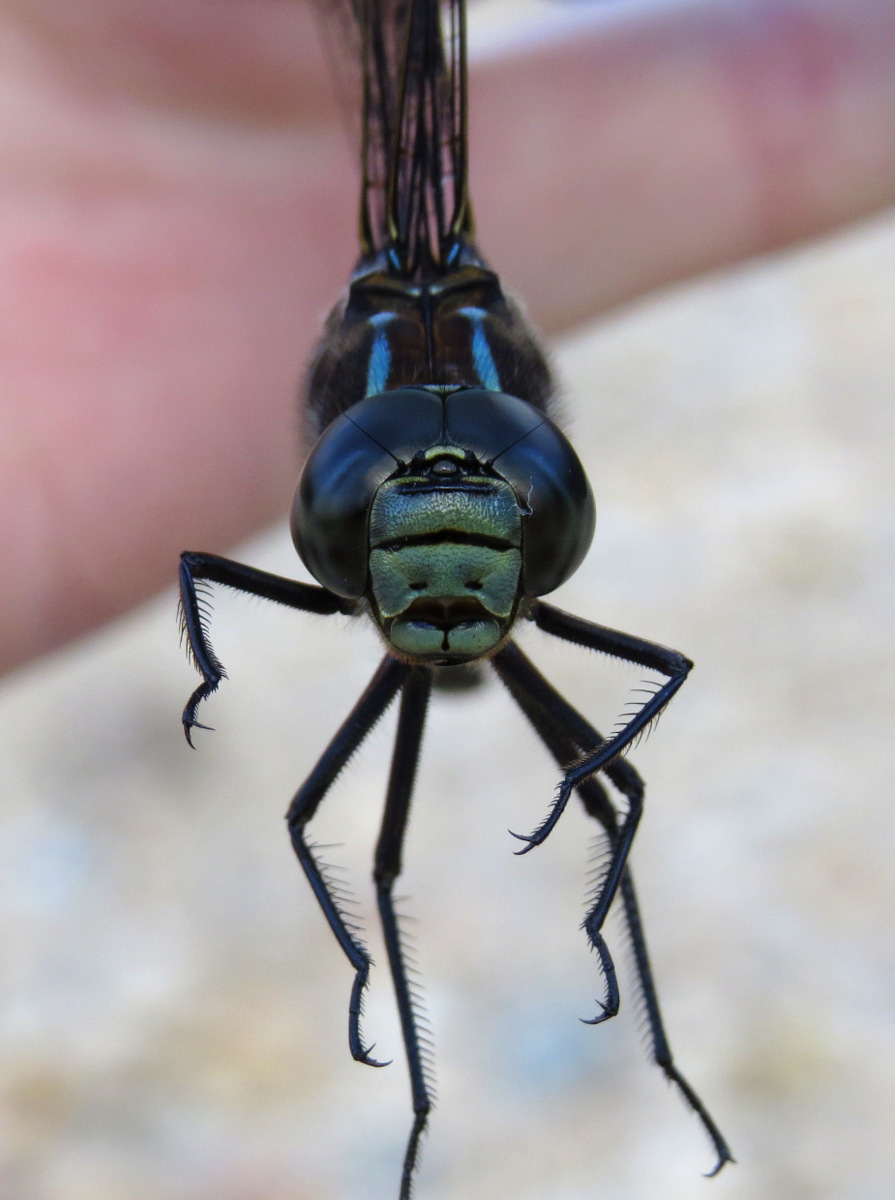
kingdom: Animalia
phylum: Arthropoda
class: Insecta
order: Odonata
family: Aeshnidae
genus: Aeshna
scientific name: Aeshna eremita
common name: Lake darner
